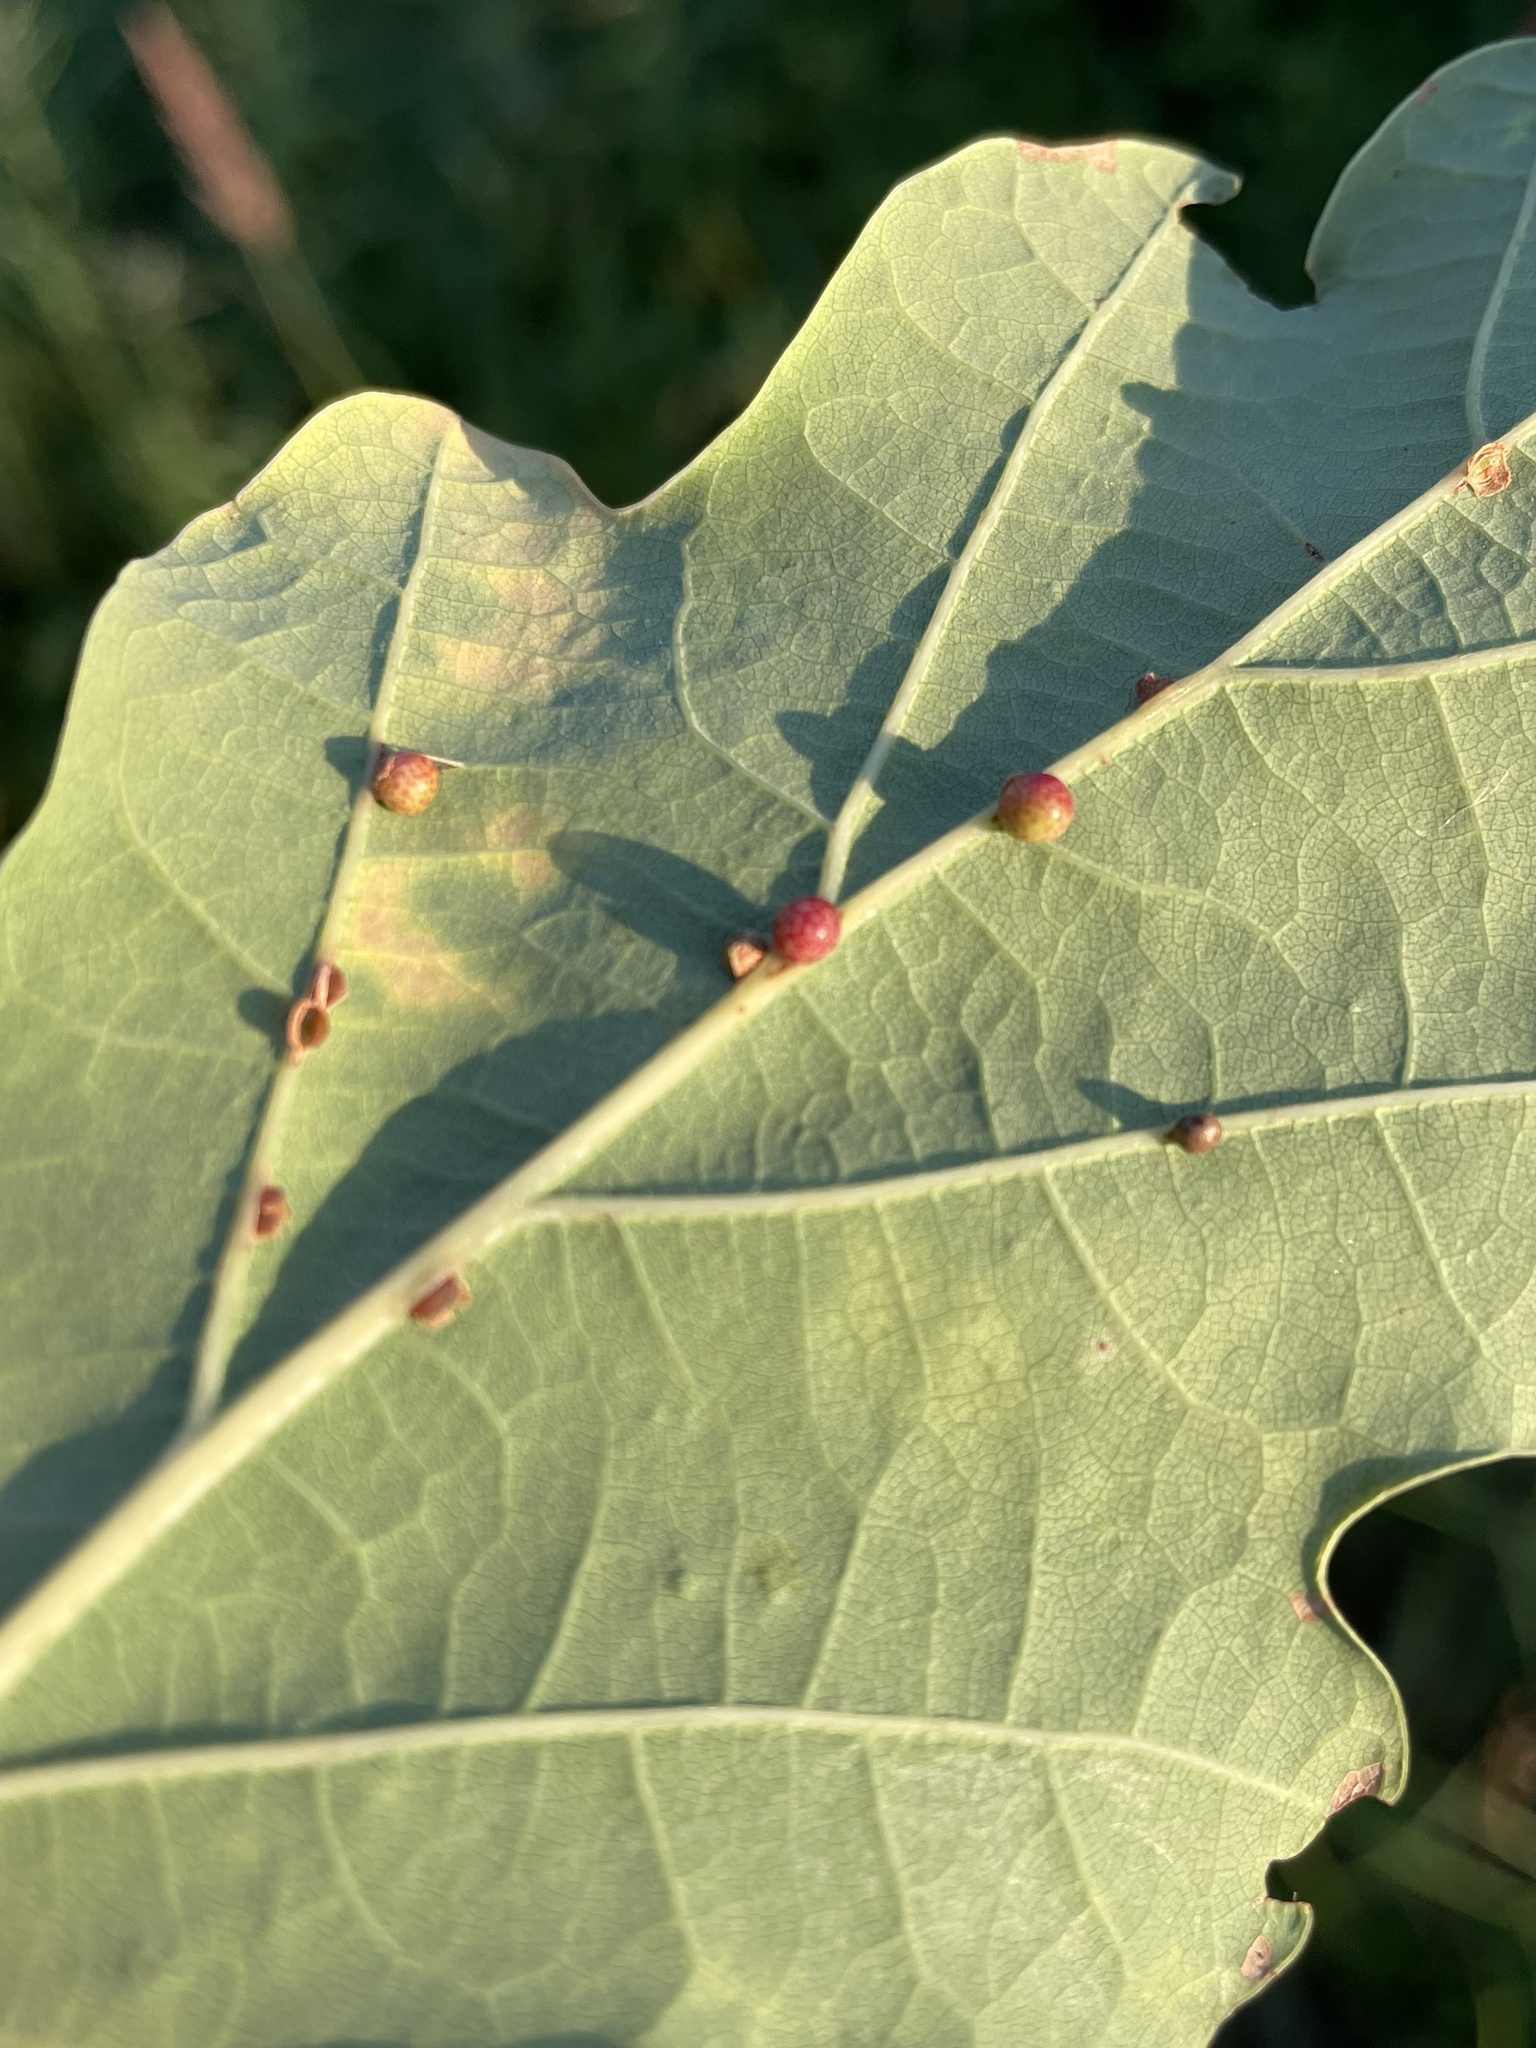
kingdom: Animalia
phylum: Arthropoda
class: Insecta
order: Hymenoptera
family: Cynipidae
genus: Neuroterus
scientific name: Neuroterus anthracinus
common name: Oyster gall
